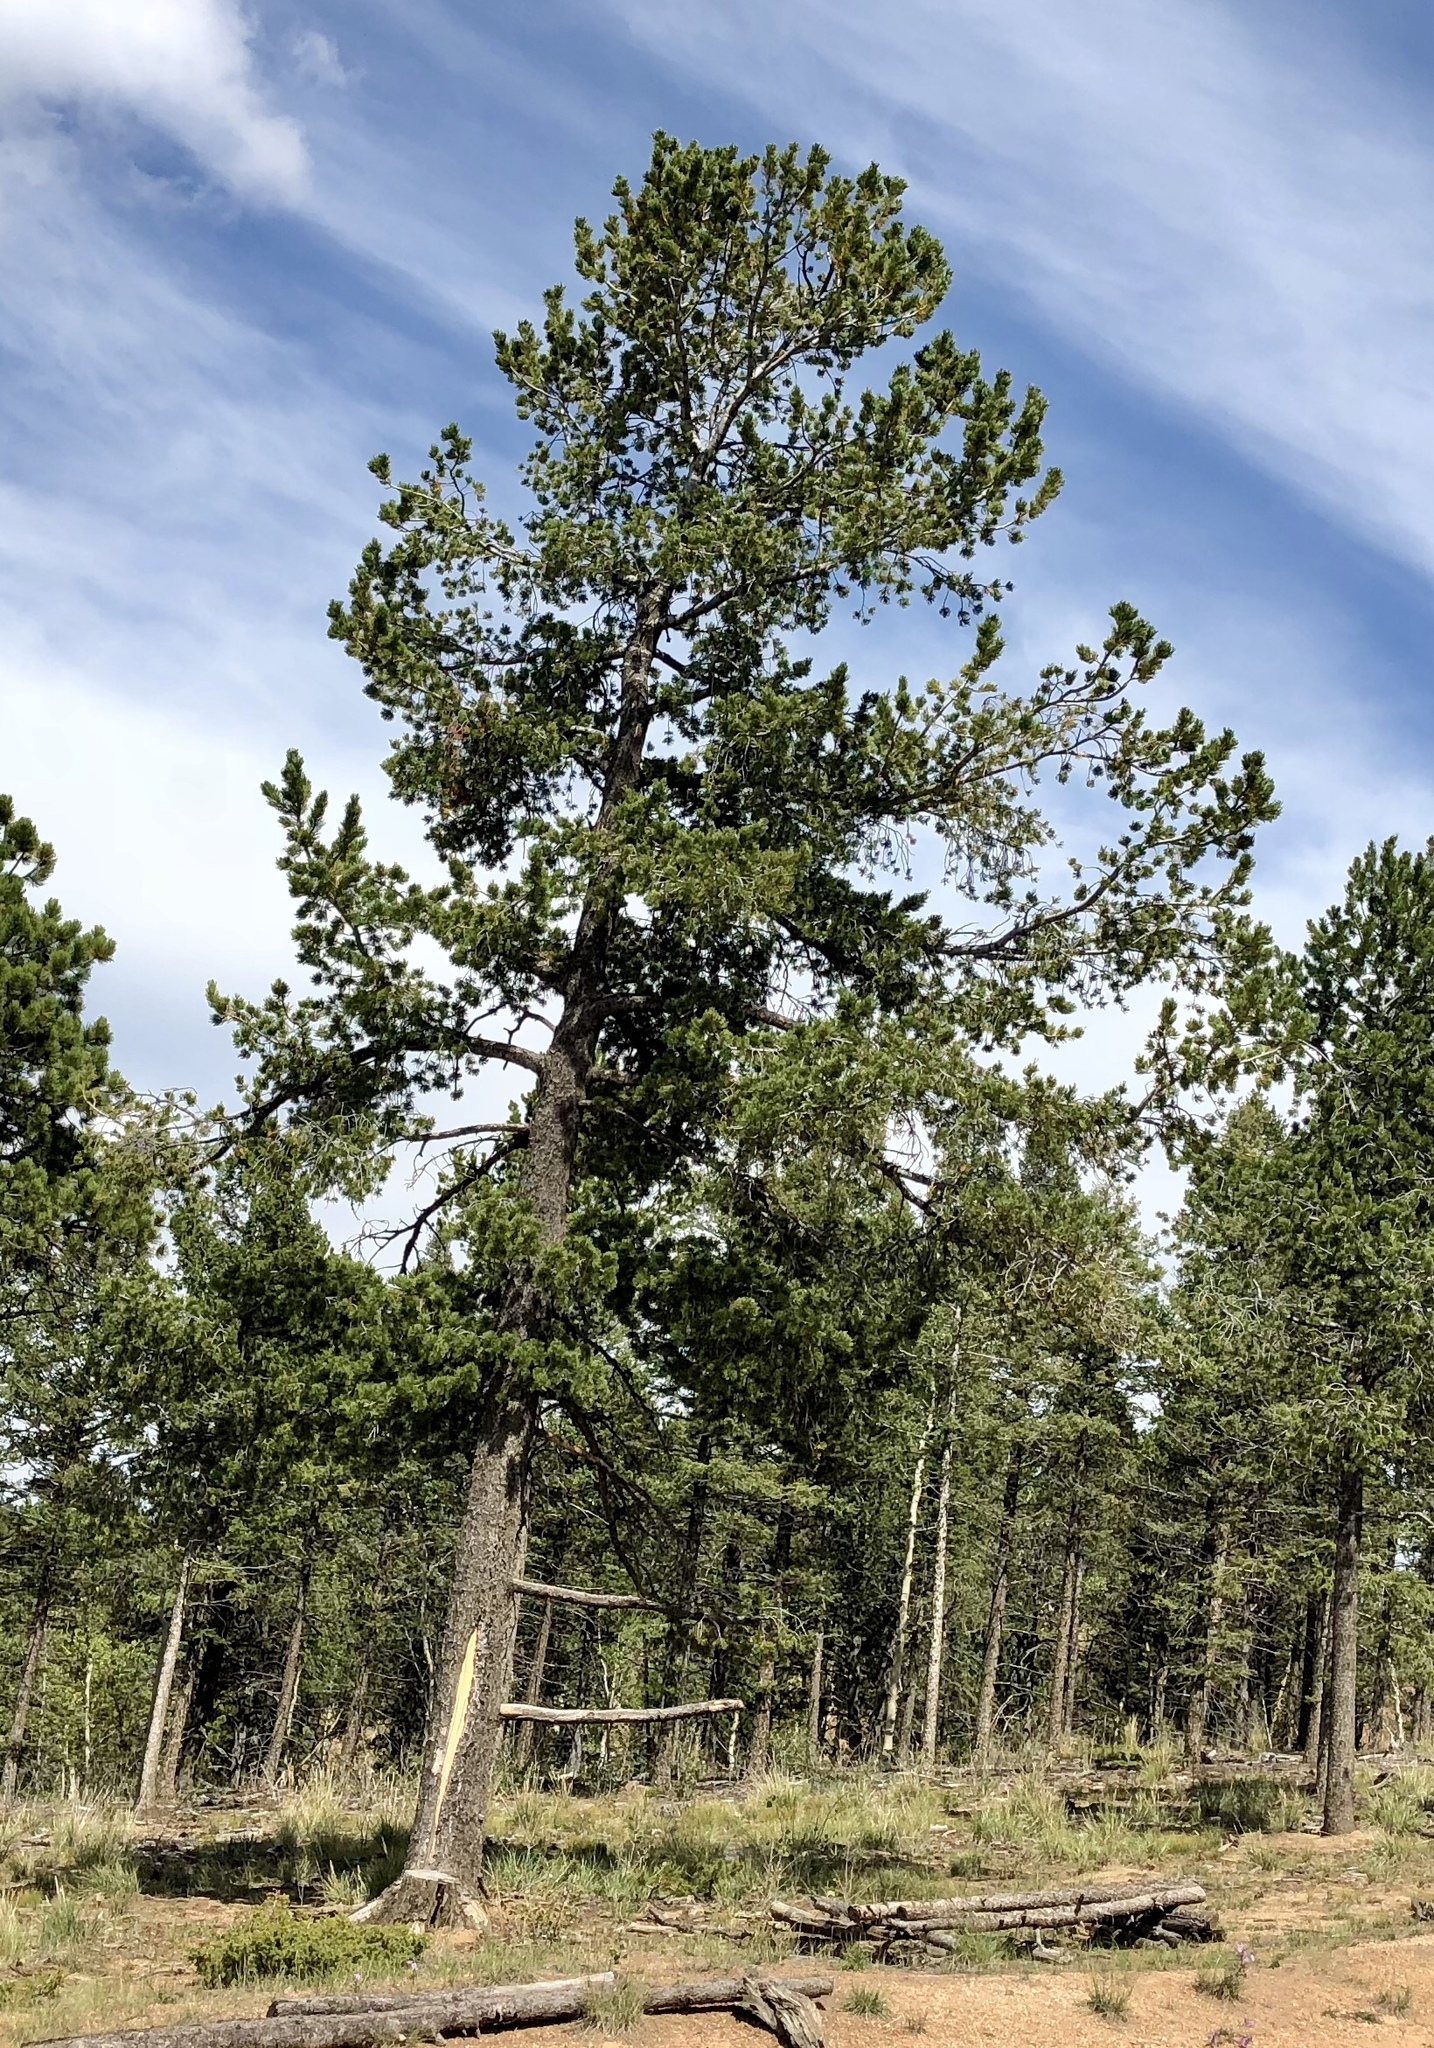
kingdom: Plantae
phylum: Tracheophyta
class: Pinopsida
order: Pinales
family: Pinaceae
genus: Pinus
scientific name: Pinus flexilis
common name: Limber pine
